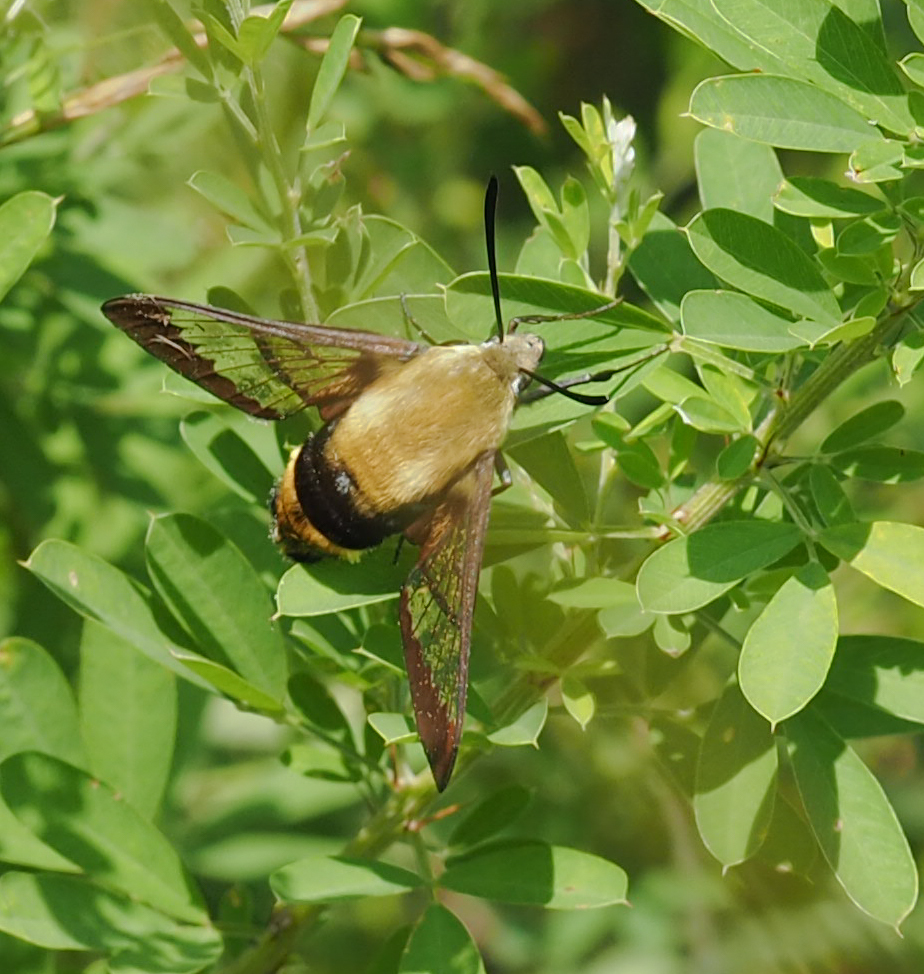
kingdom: Animalia
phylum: Arthropoda
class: Insecta
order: Lepidoptera
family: Sphingidae
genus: Hemaris
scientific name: Hemaris diffinis
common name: Bumblebee moth
